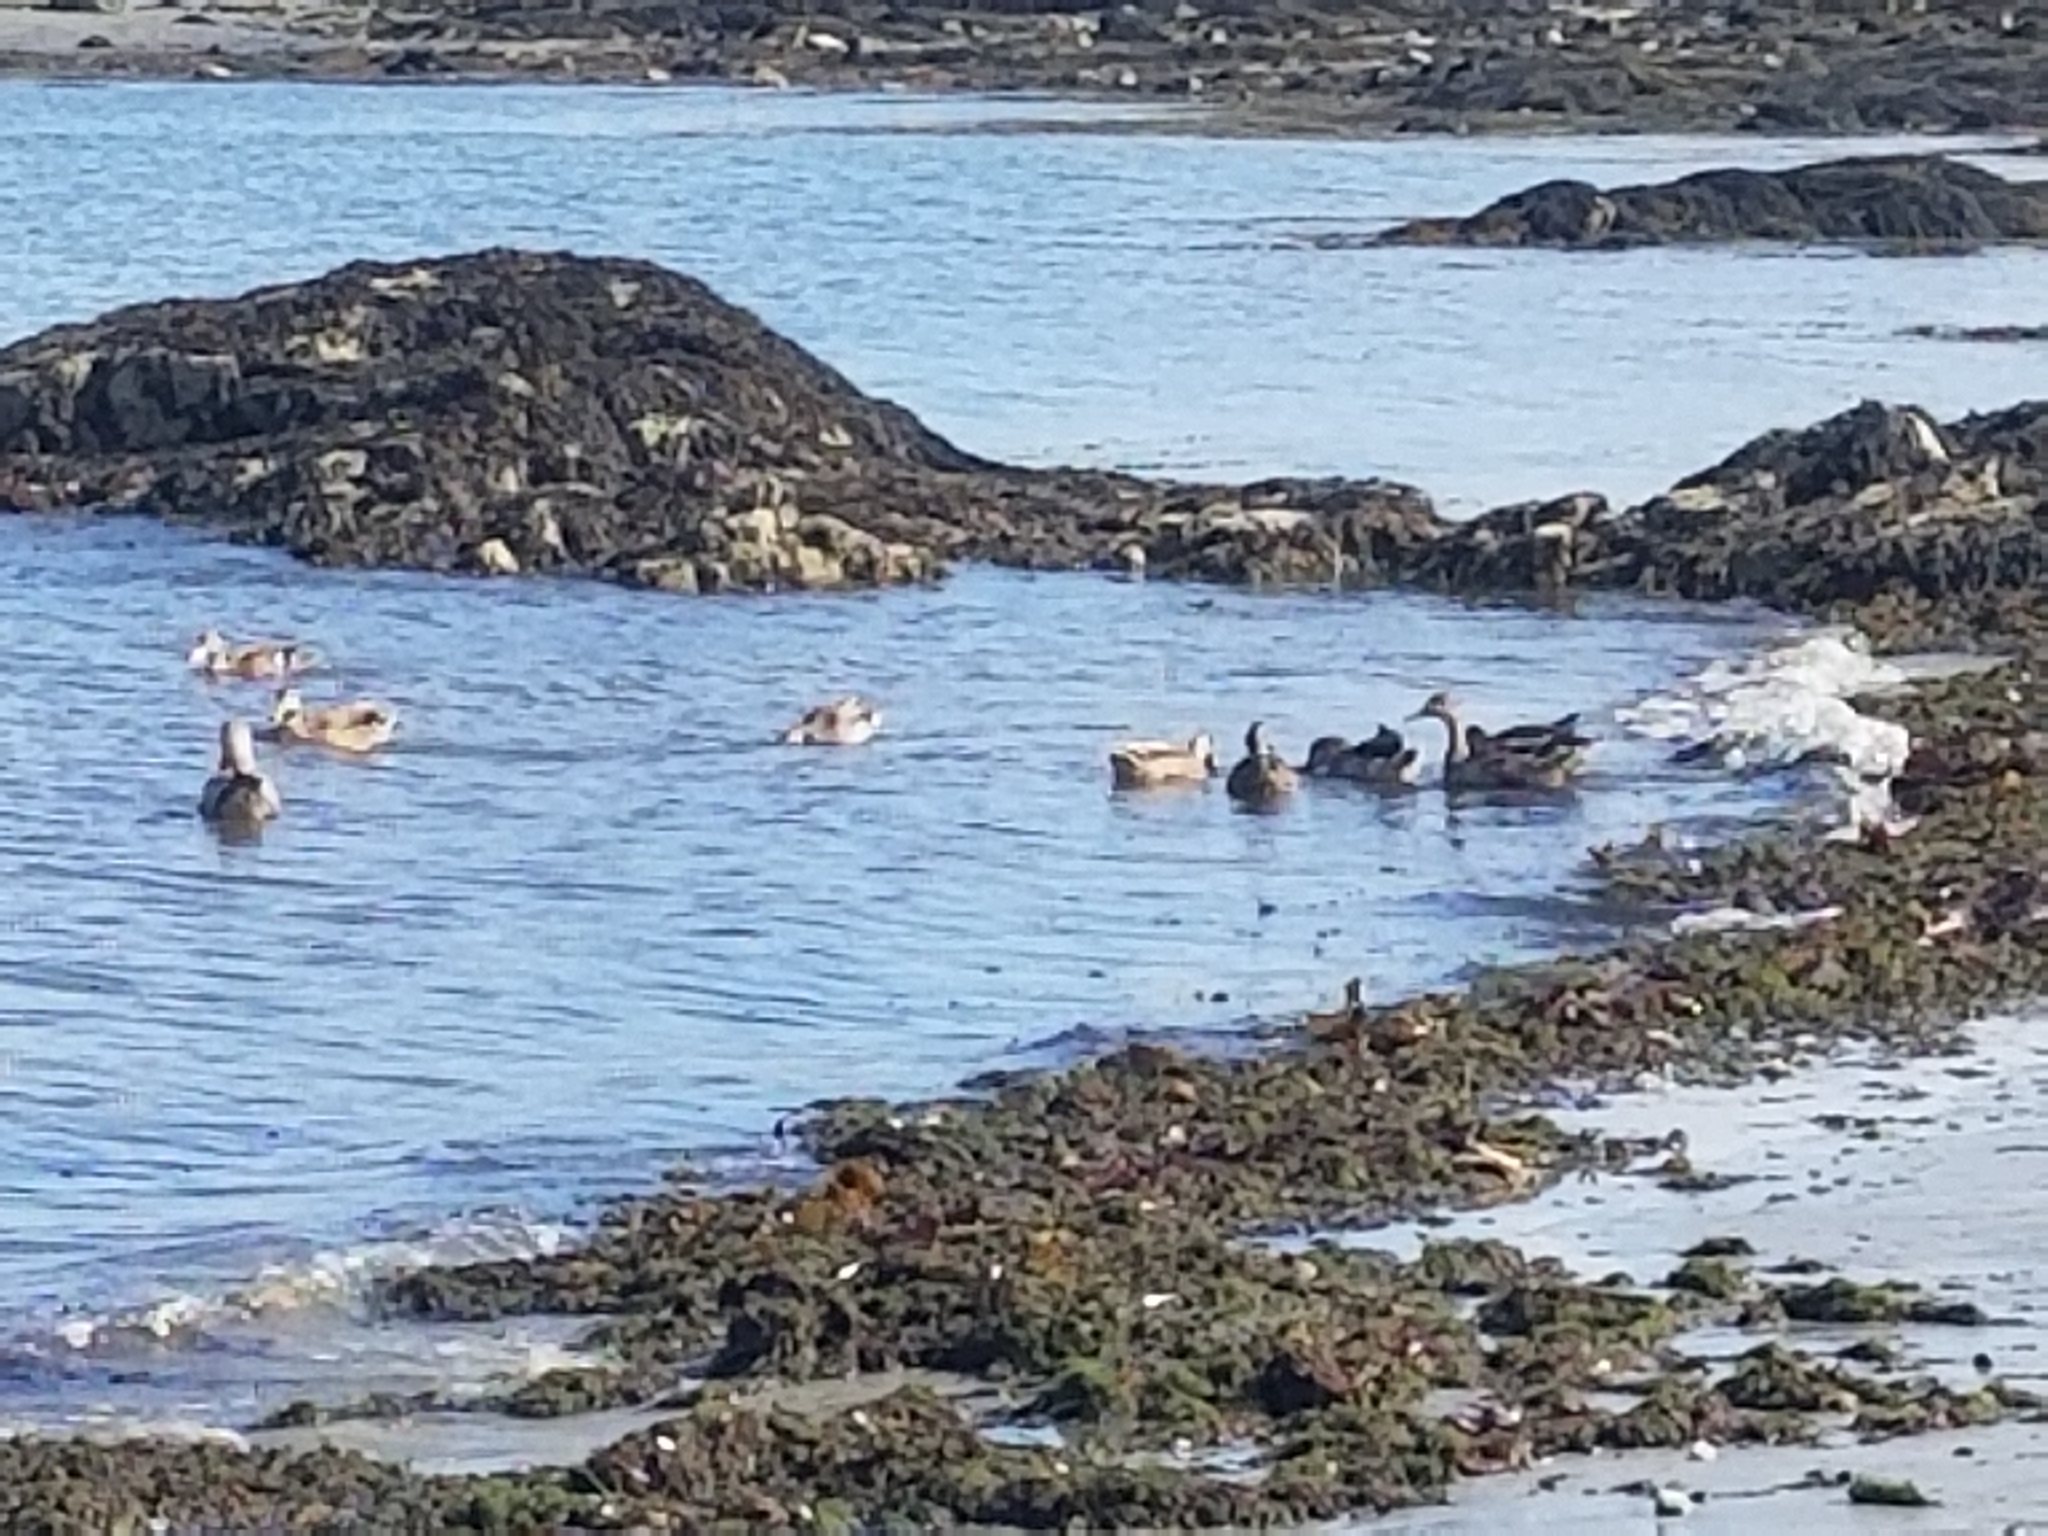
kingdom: Animalia
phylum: Chordata
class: Aves
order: Anseriformes
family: Anatidae
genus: Anas
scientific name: Anas platyrhynchos
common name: Mallard
